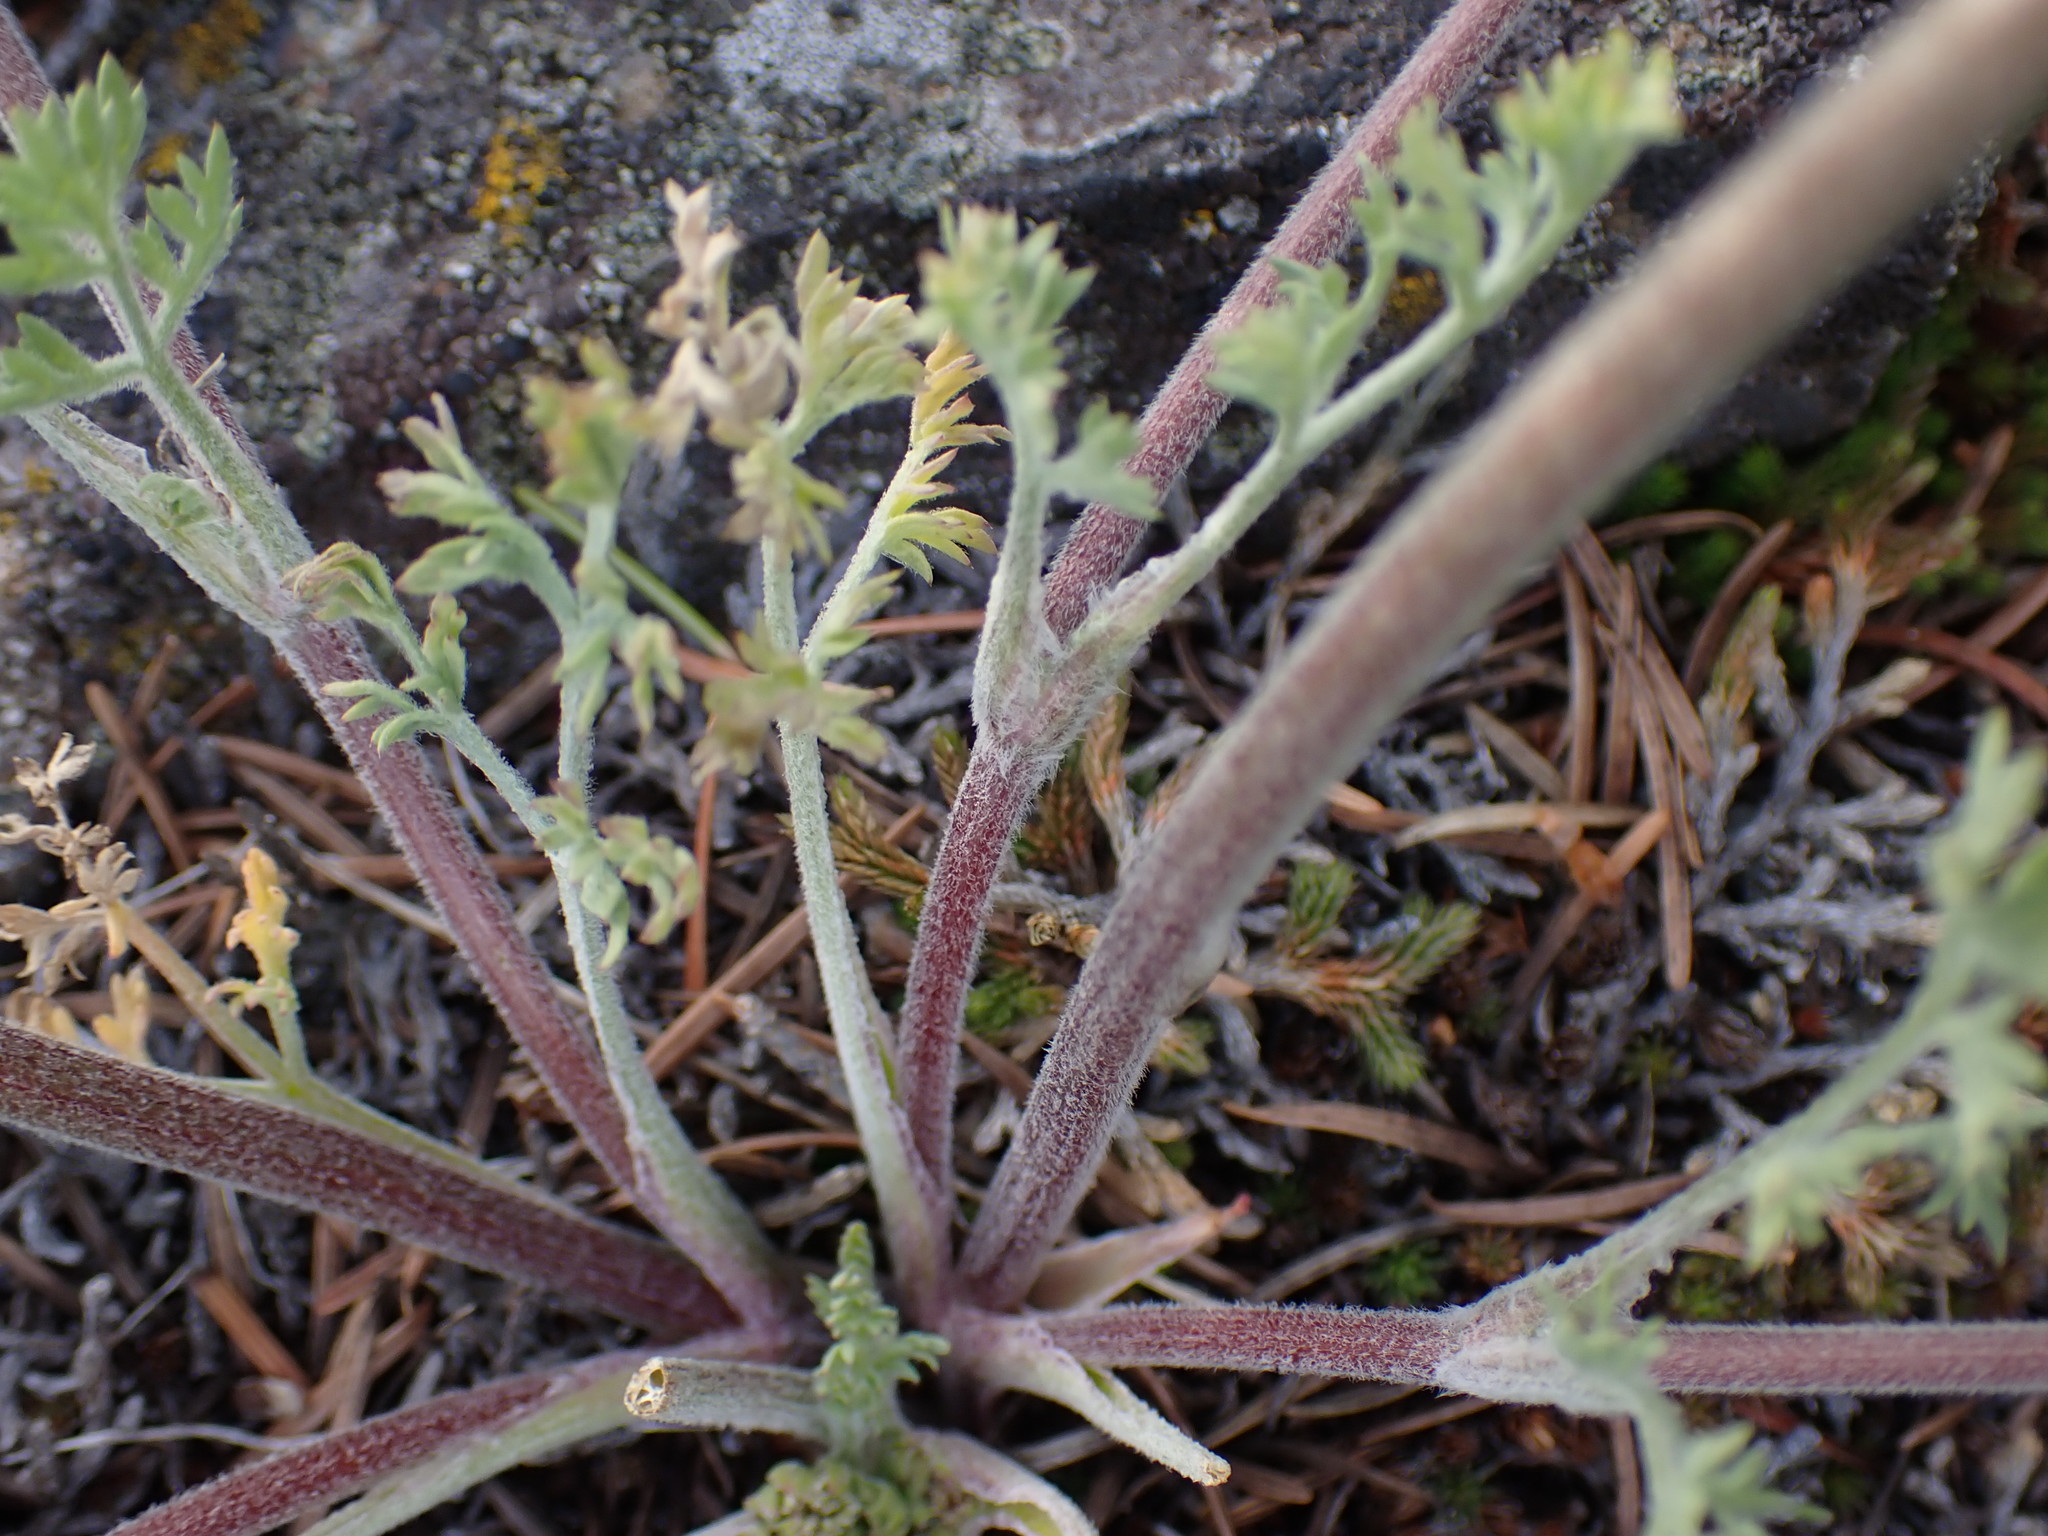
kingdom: Plantae
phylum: Tracheophyta
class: Magnoliopsida
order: Apiales
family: Apiaceae
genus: Lomatium
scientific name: Lomatium macrocarpum
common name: Big-seed biscuitroot
